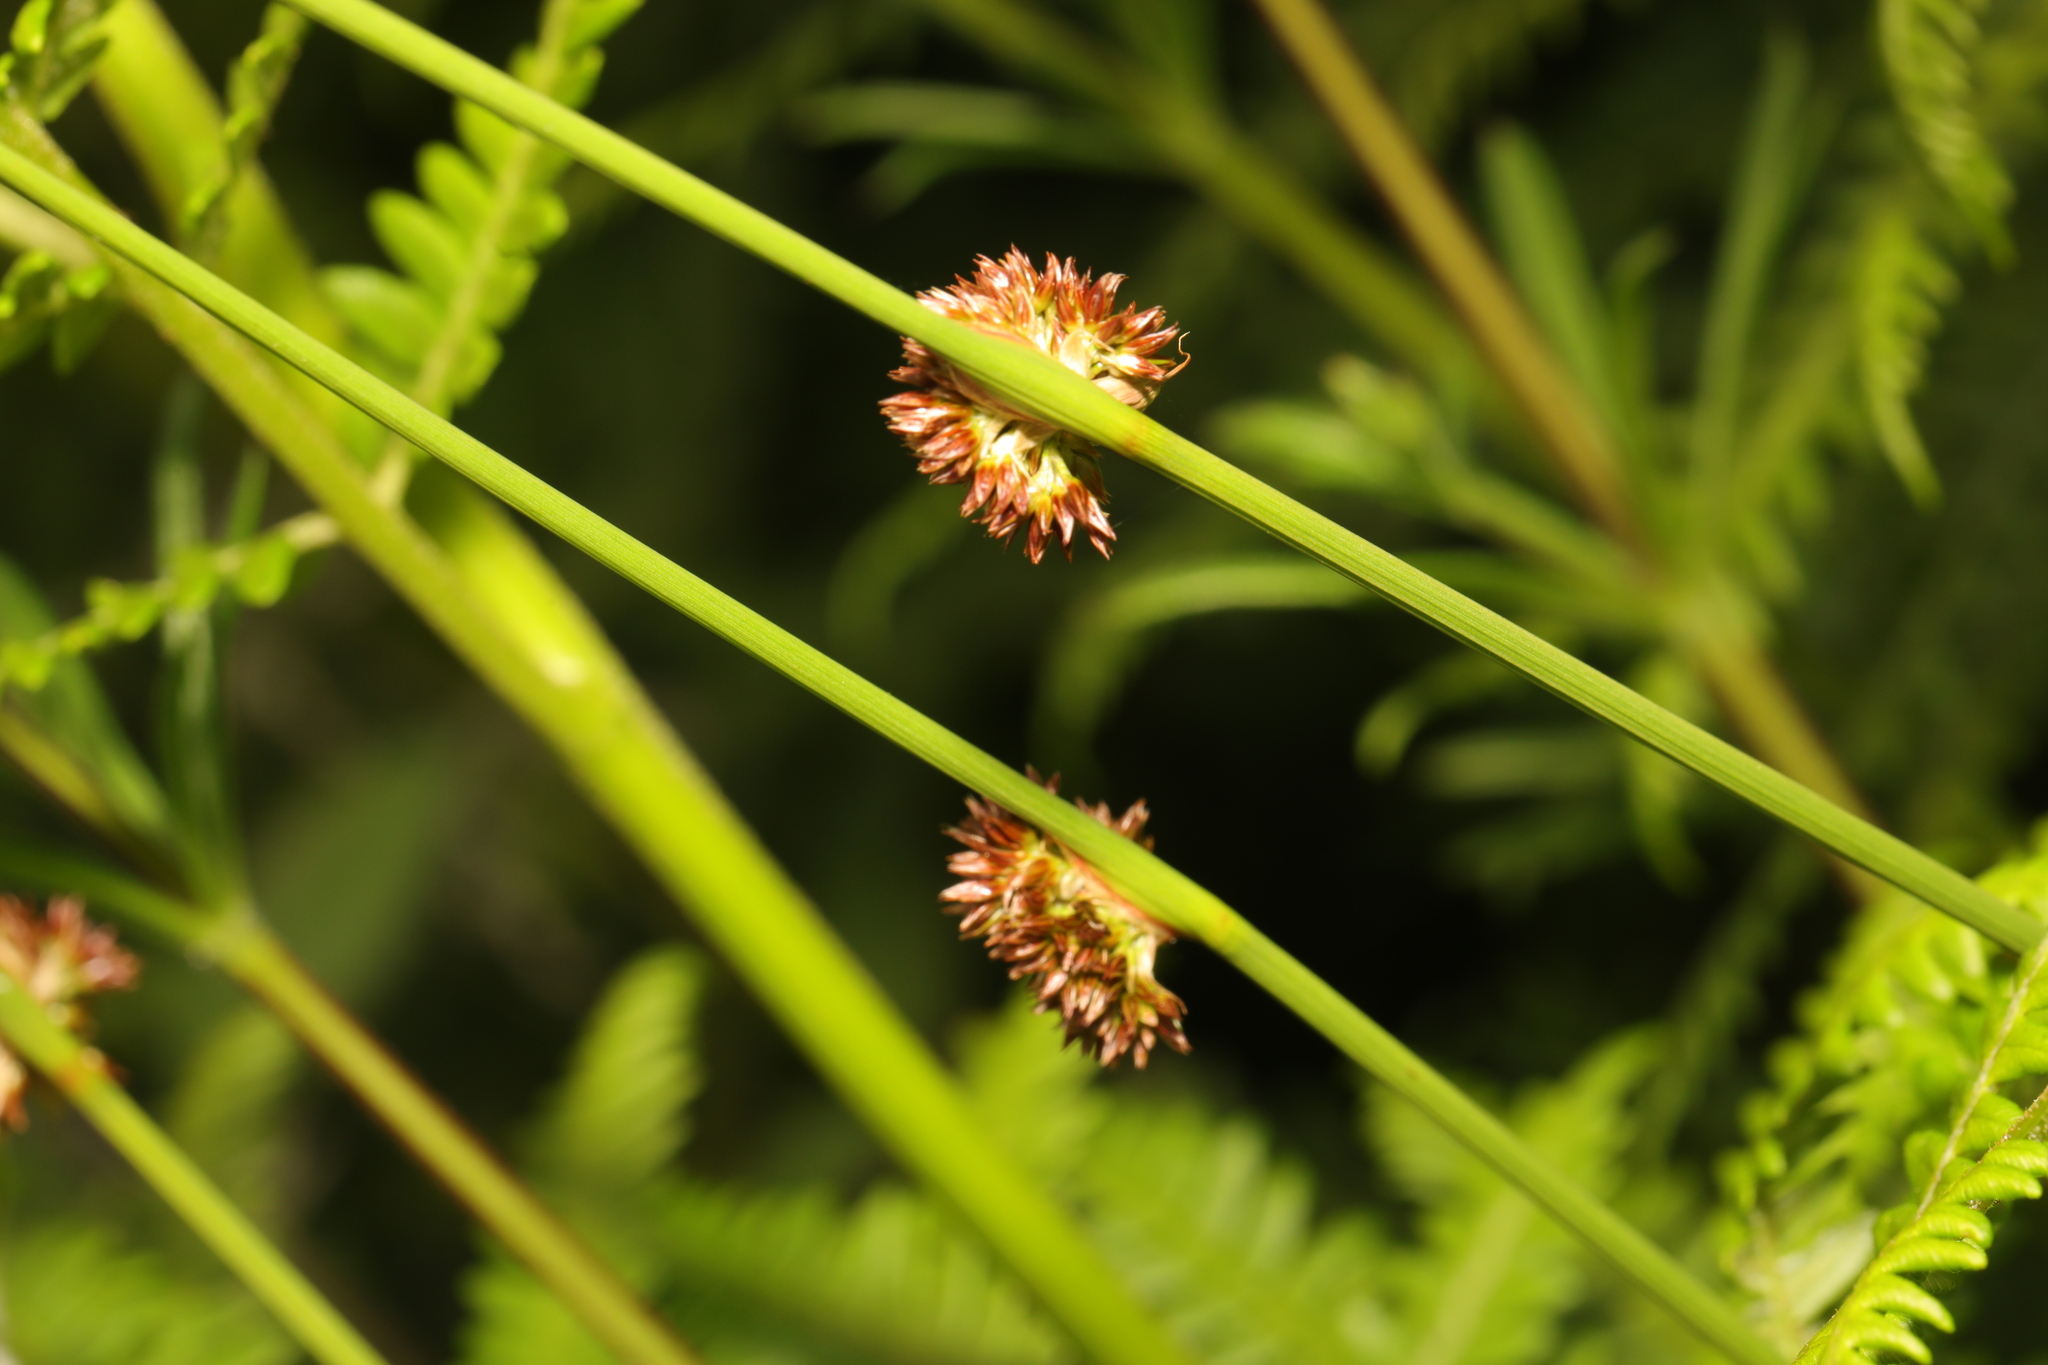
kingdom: Plantae
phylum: Tracheophyta
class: Liliopsida
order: Poales
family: Juncaceae
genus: Juncus
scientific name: Juncus conglomeratus
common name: Compact rush
